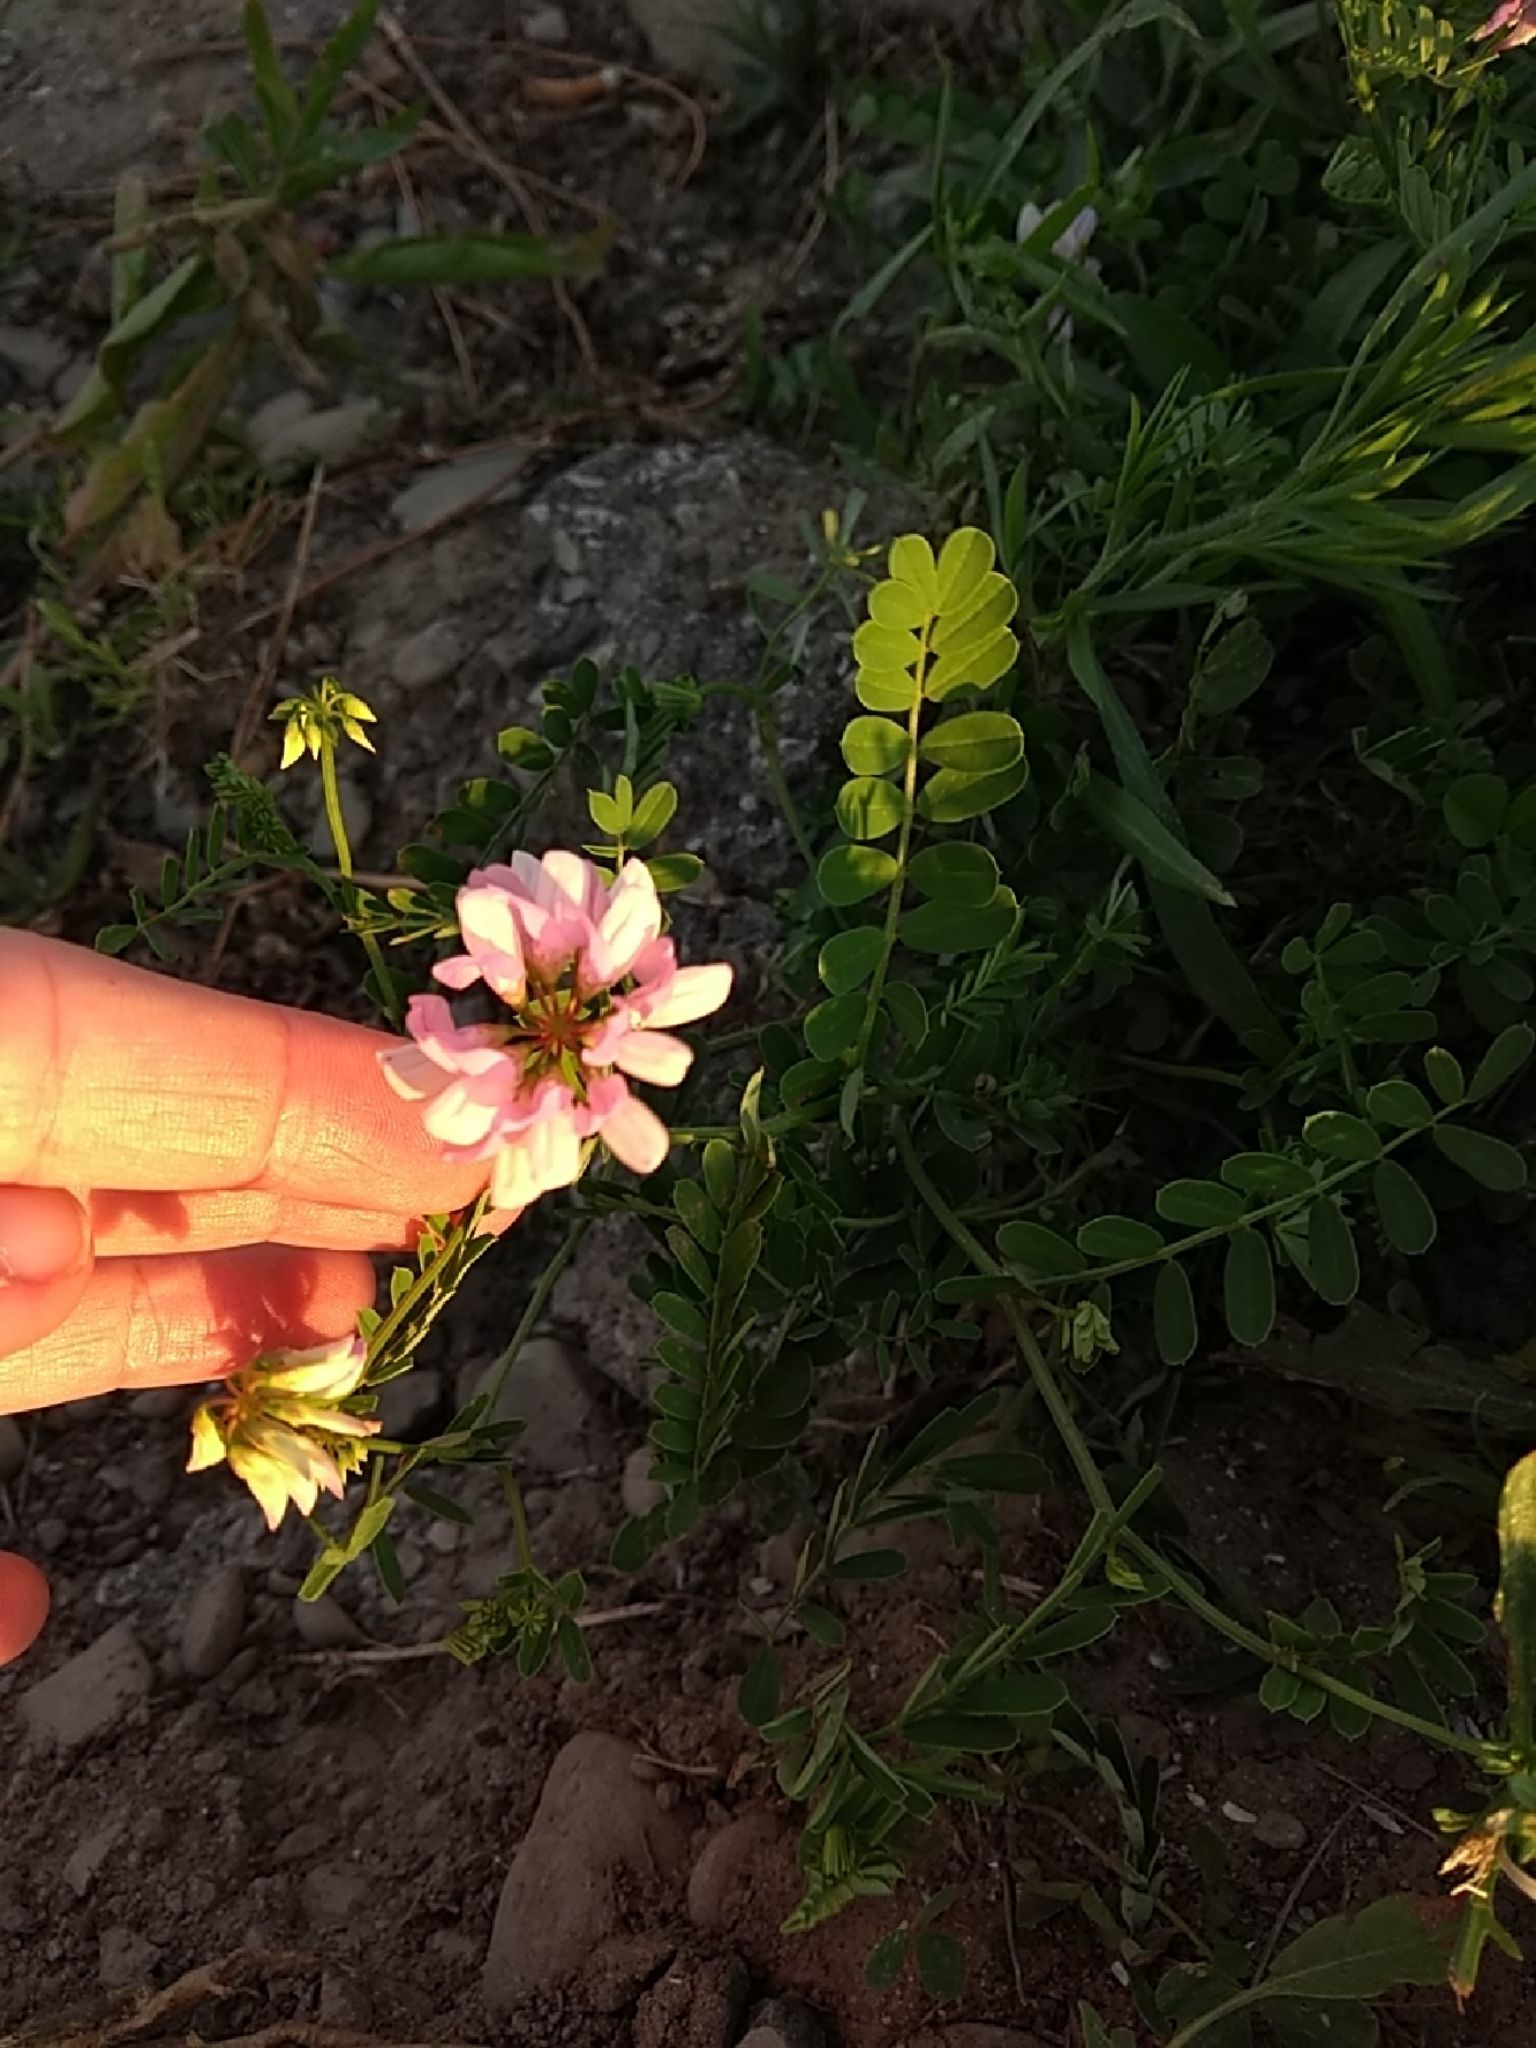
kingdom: Plantae
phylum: Tracheophyta
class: Magnoliopsida
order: Fabales
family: Fabaceae
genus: Coronilla
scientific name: Coronilla varia
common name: Crownvetch
